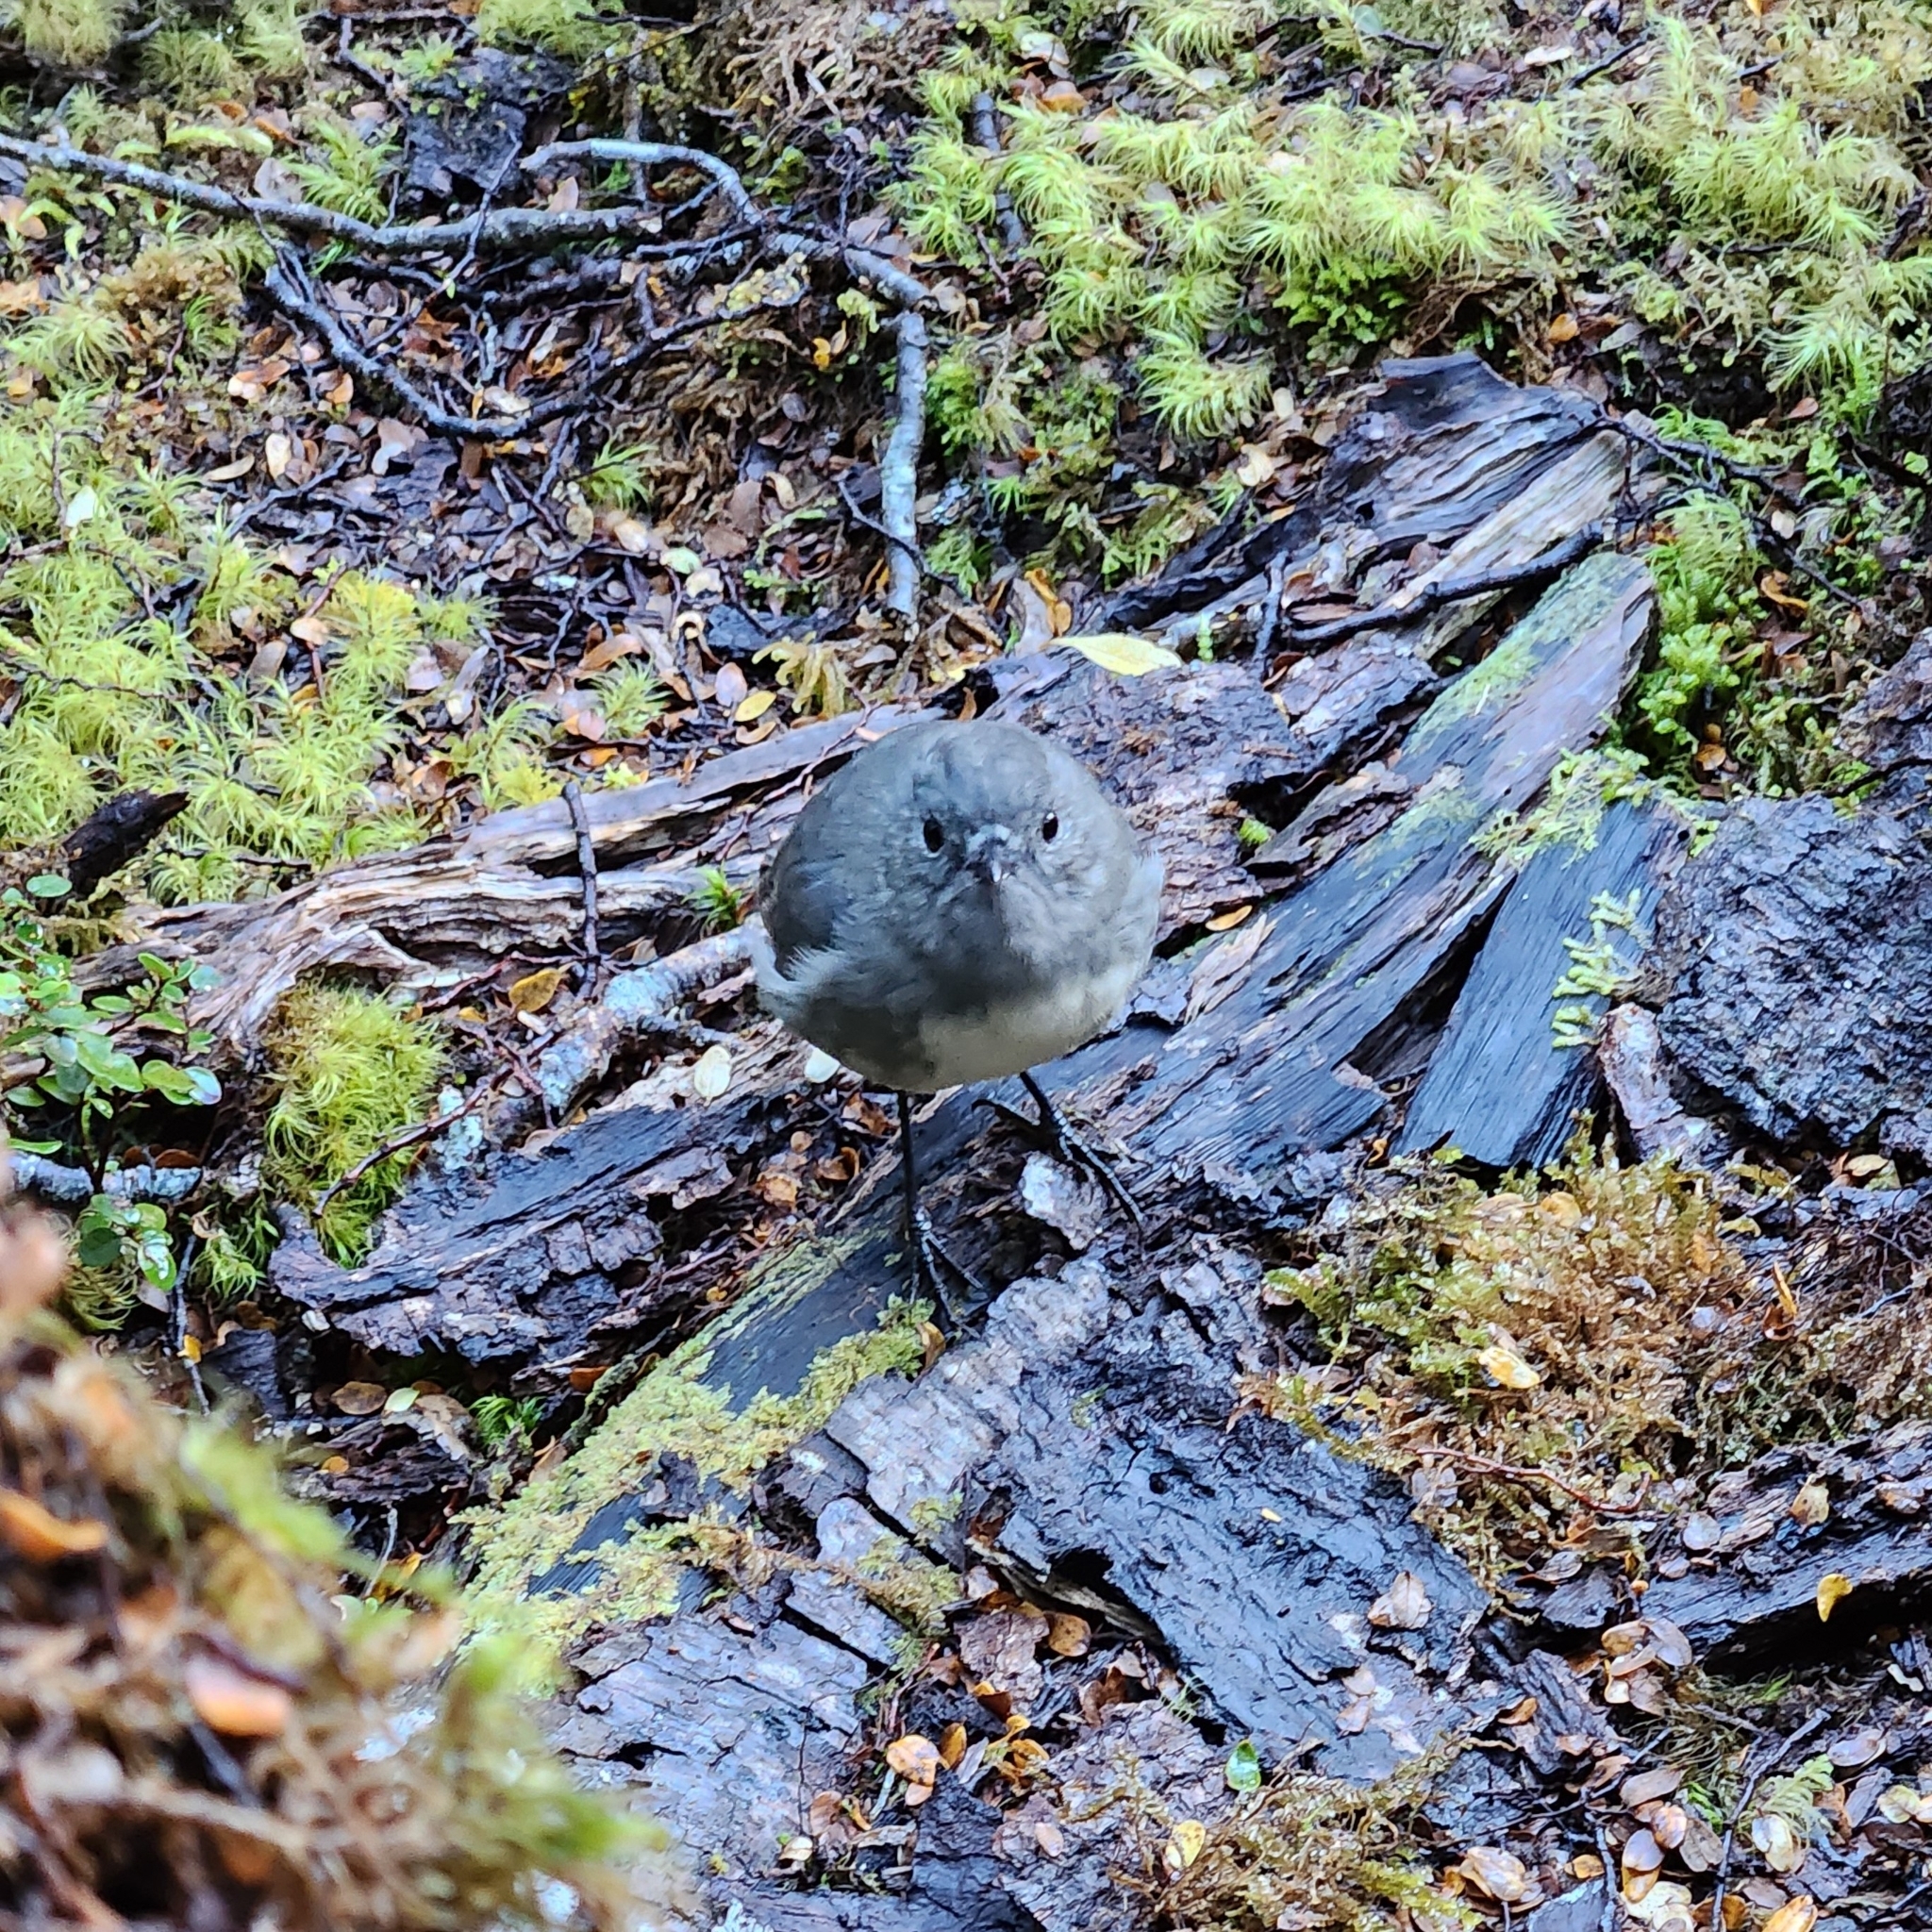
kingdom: Animalia
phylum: Chordata
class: Aves
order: Passeriformes
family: Petroicidae
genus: Petroica
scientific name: Petroica australis
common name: New zealand robin
